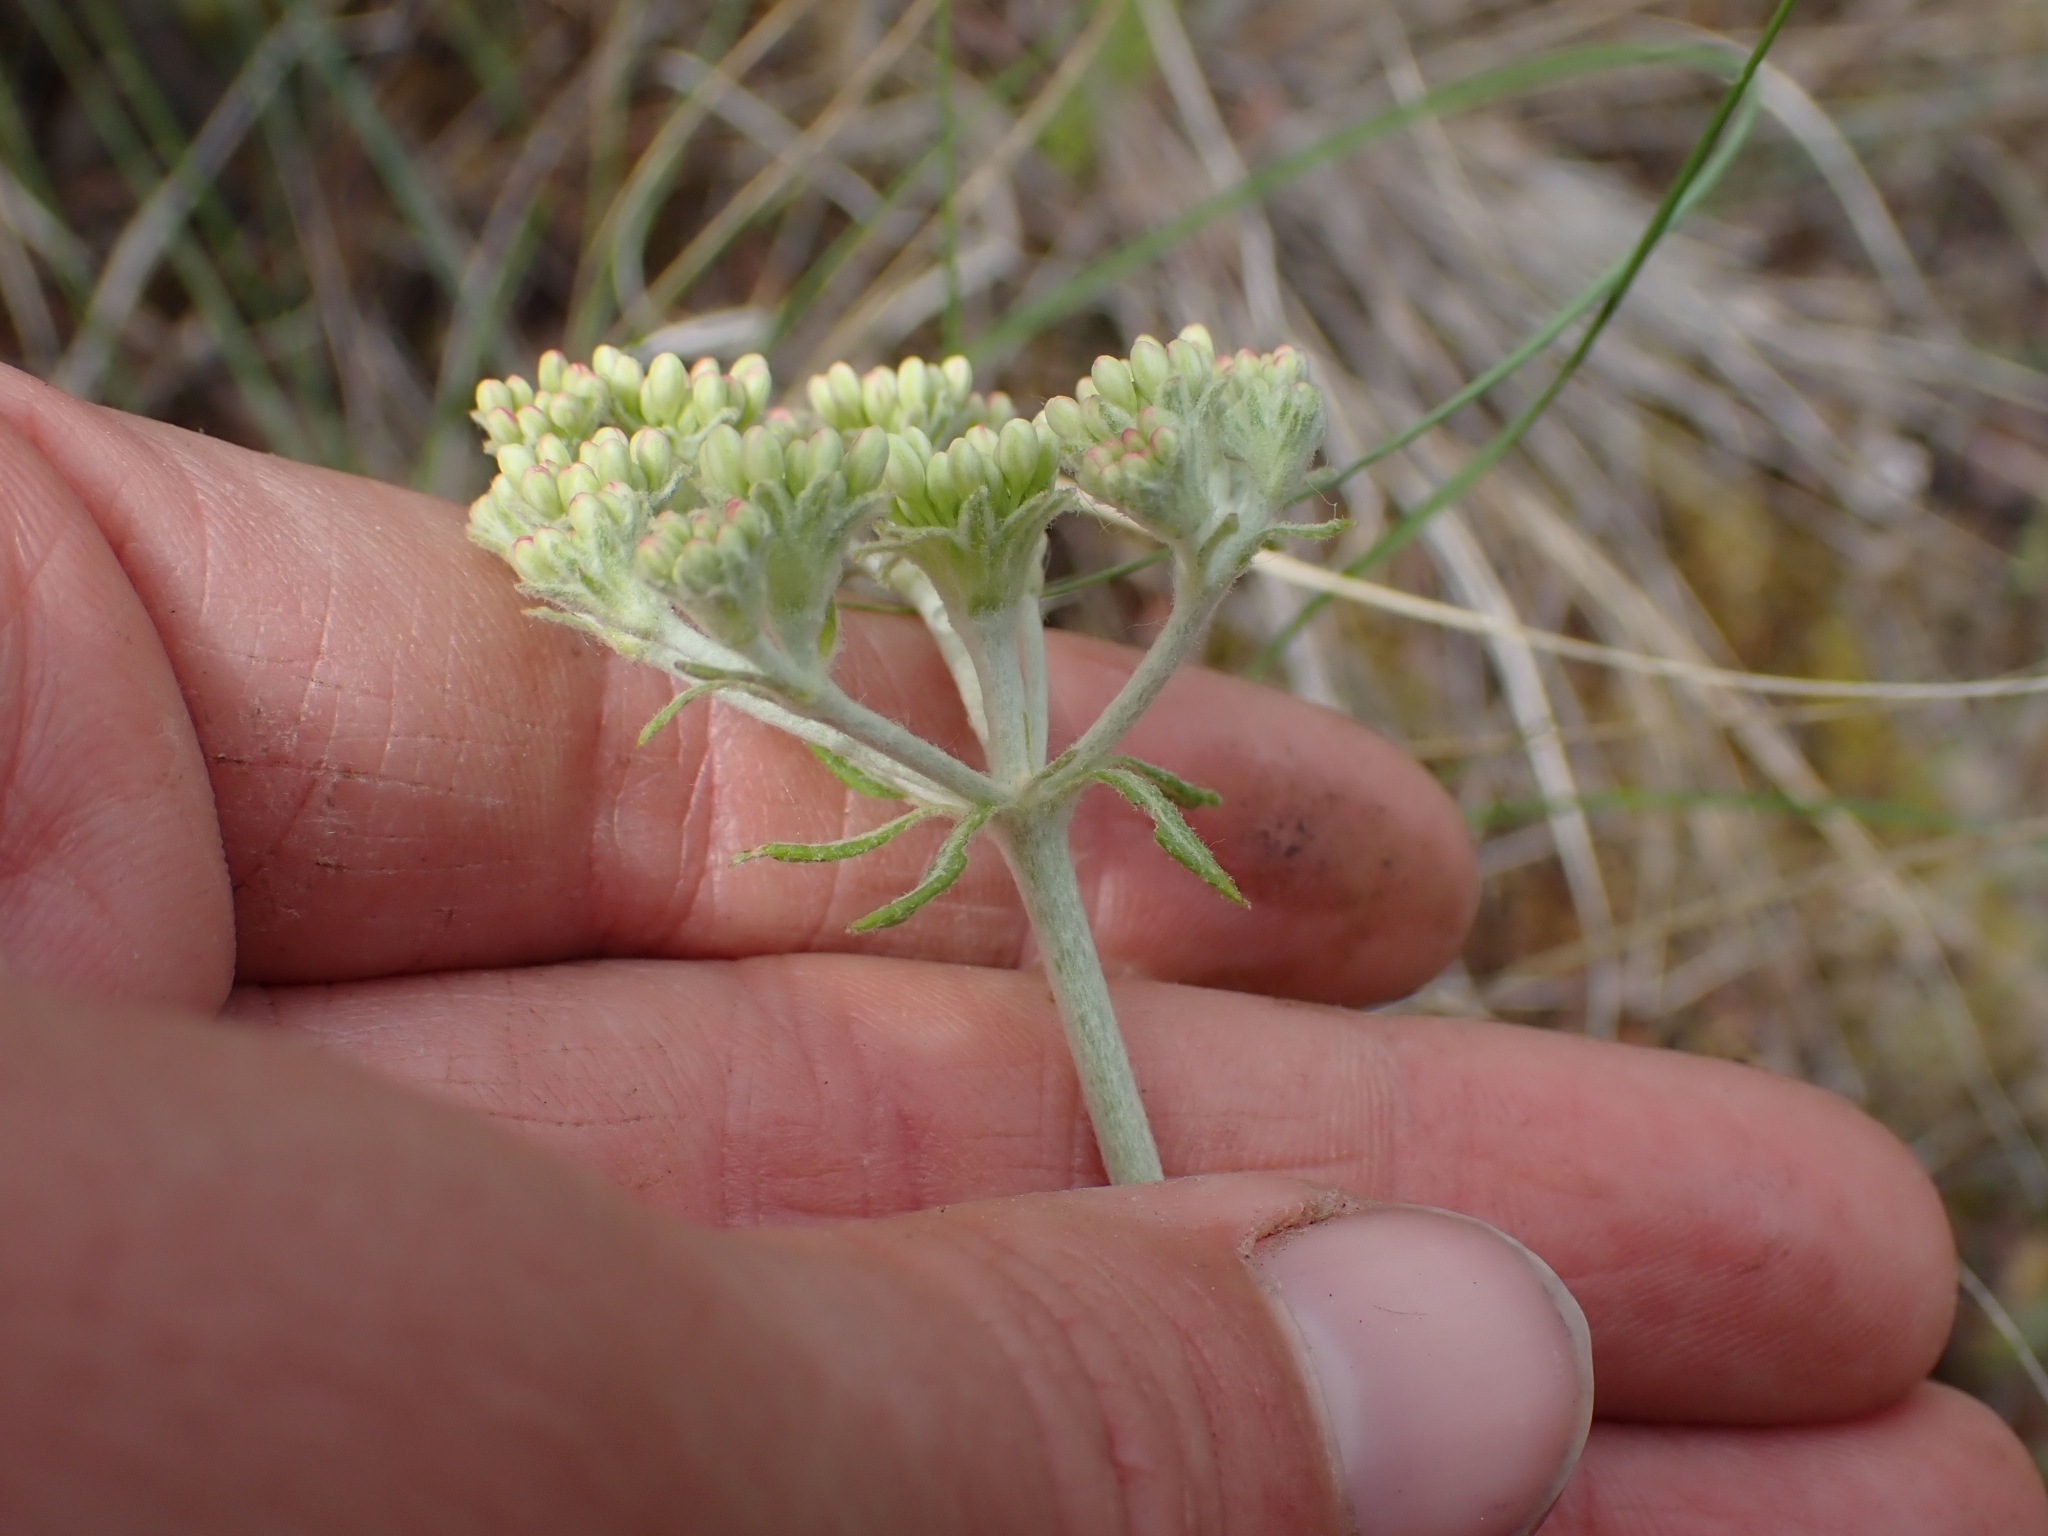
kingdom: Plantae
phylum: Tracheophyta
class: Magnoliopsida
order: Caryophyllales
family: Polygonaceae
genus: Eriogonum
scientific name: Eriogonum heracleoides
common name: Wyeth's buckwheat
